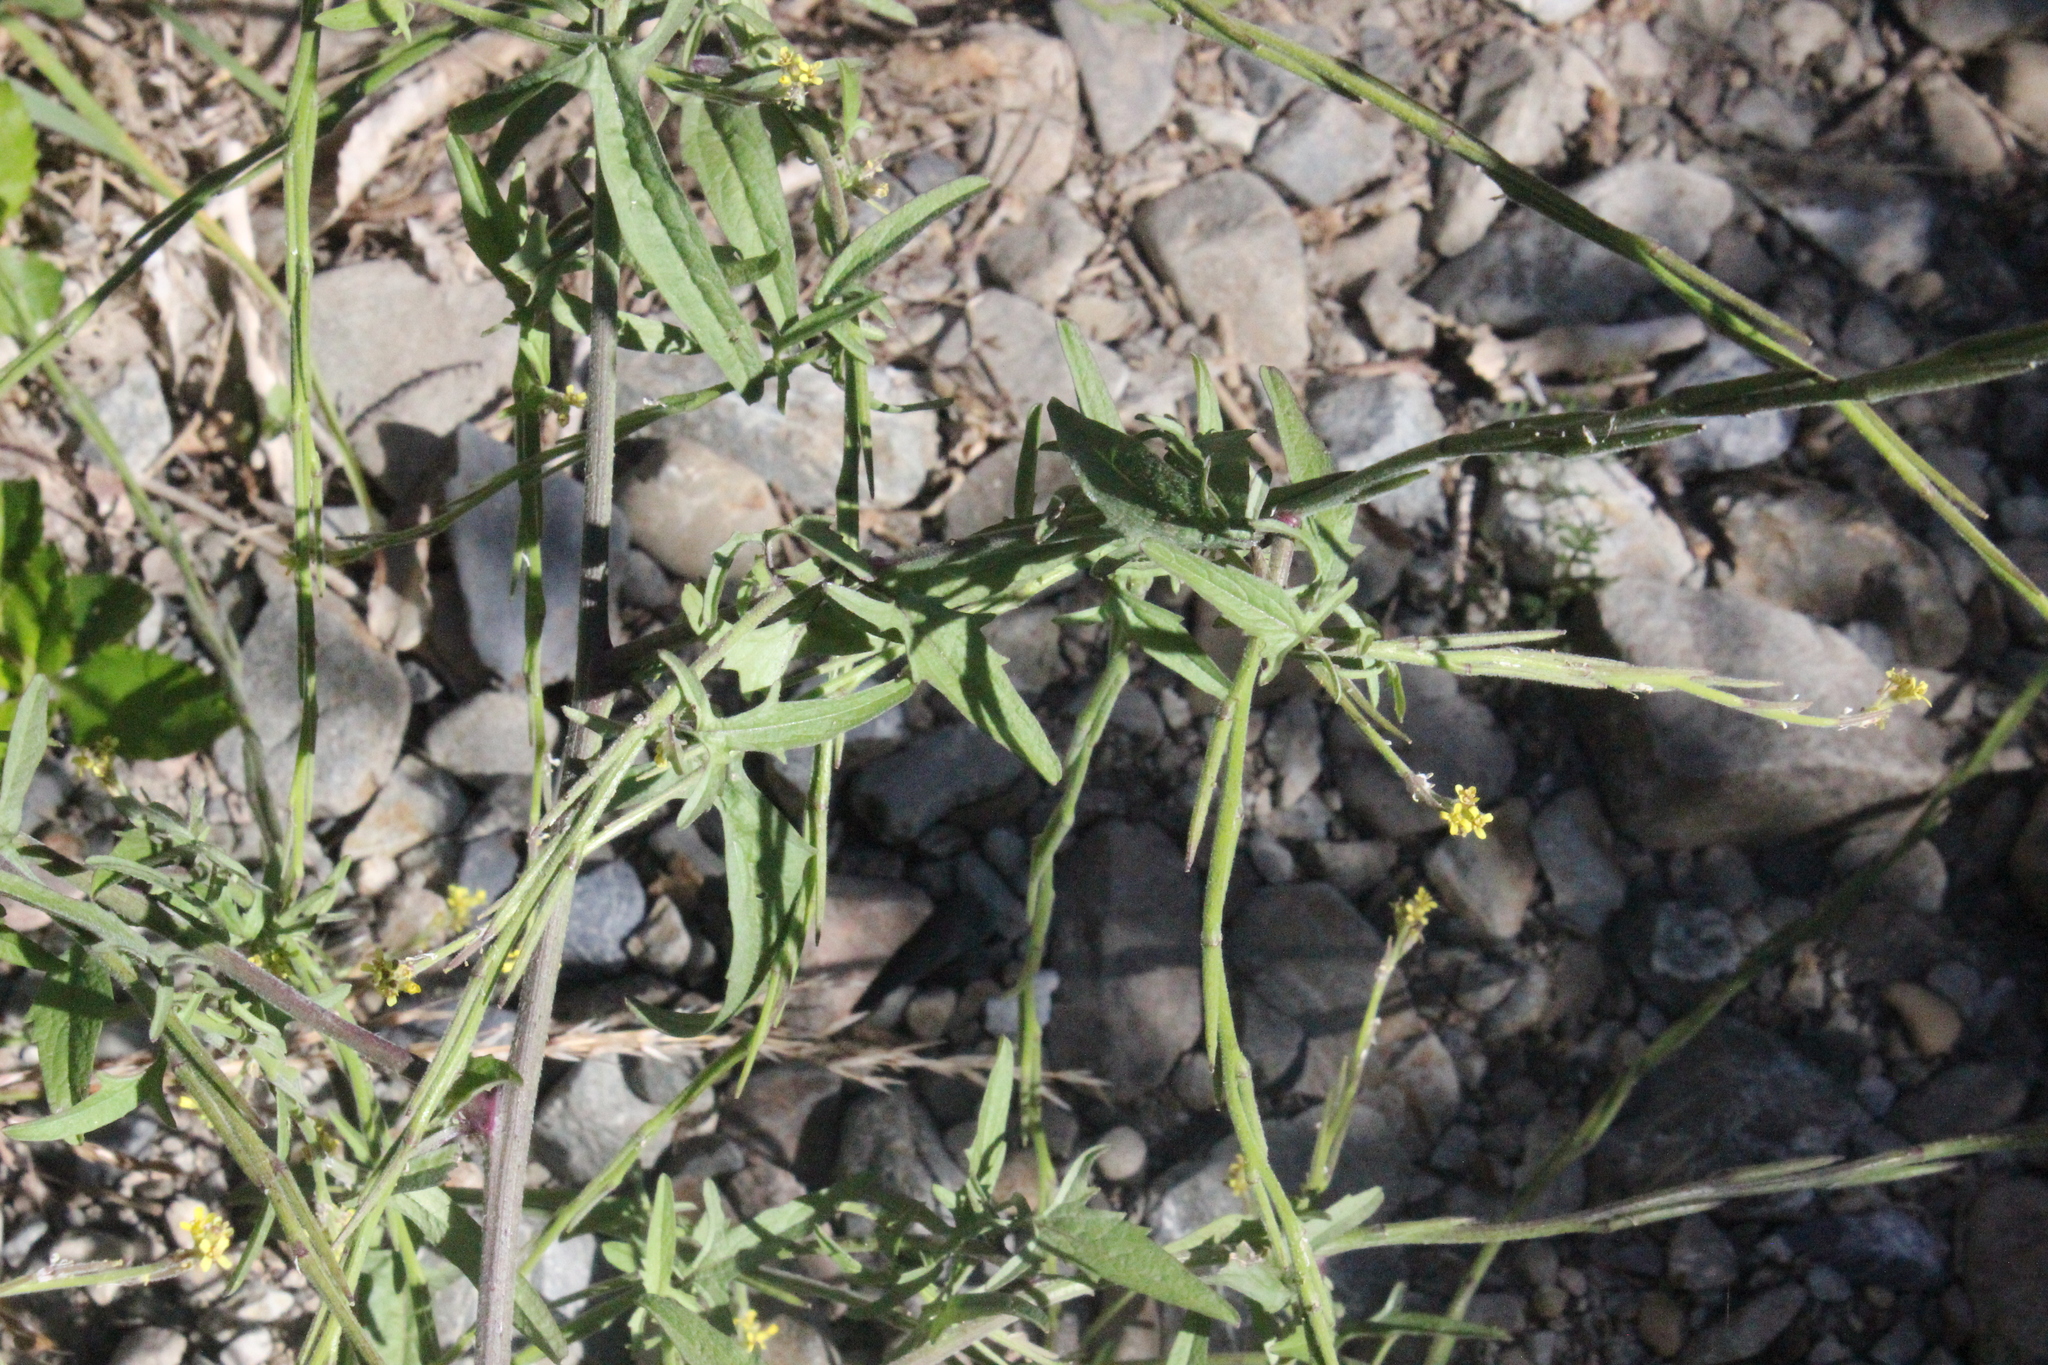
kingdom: Plantae
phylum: Tracheophyta
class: Magnoliopsida
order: Brassicales
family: Brassicaceae
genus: Sisymbrium
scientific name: Sisymbrium officinale
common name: Hedge mustard
